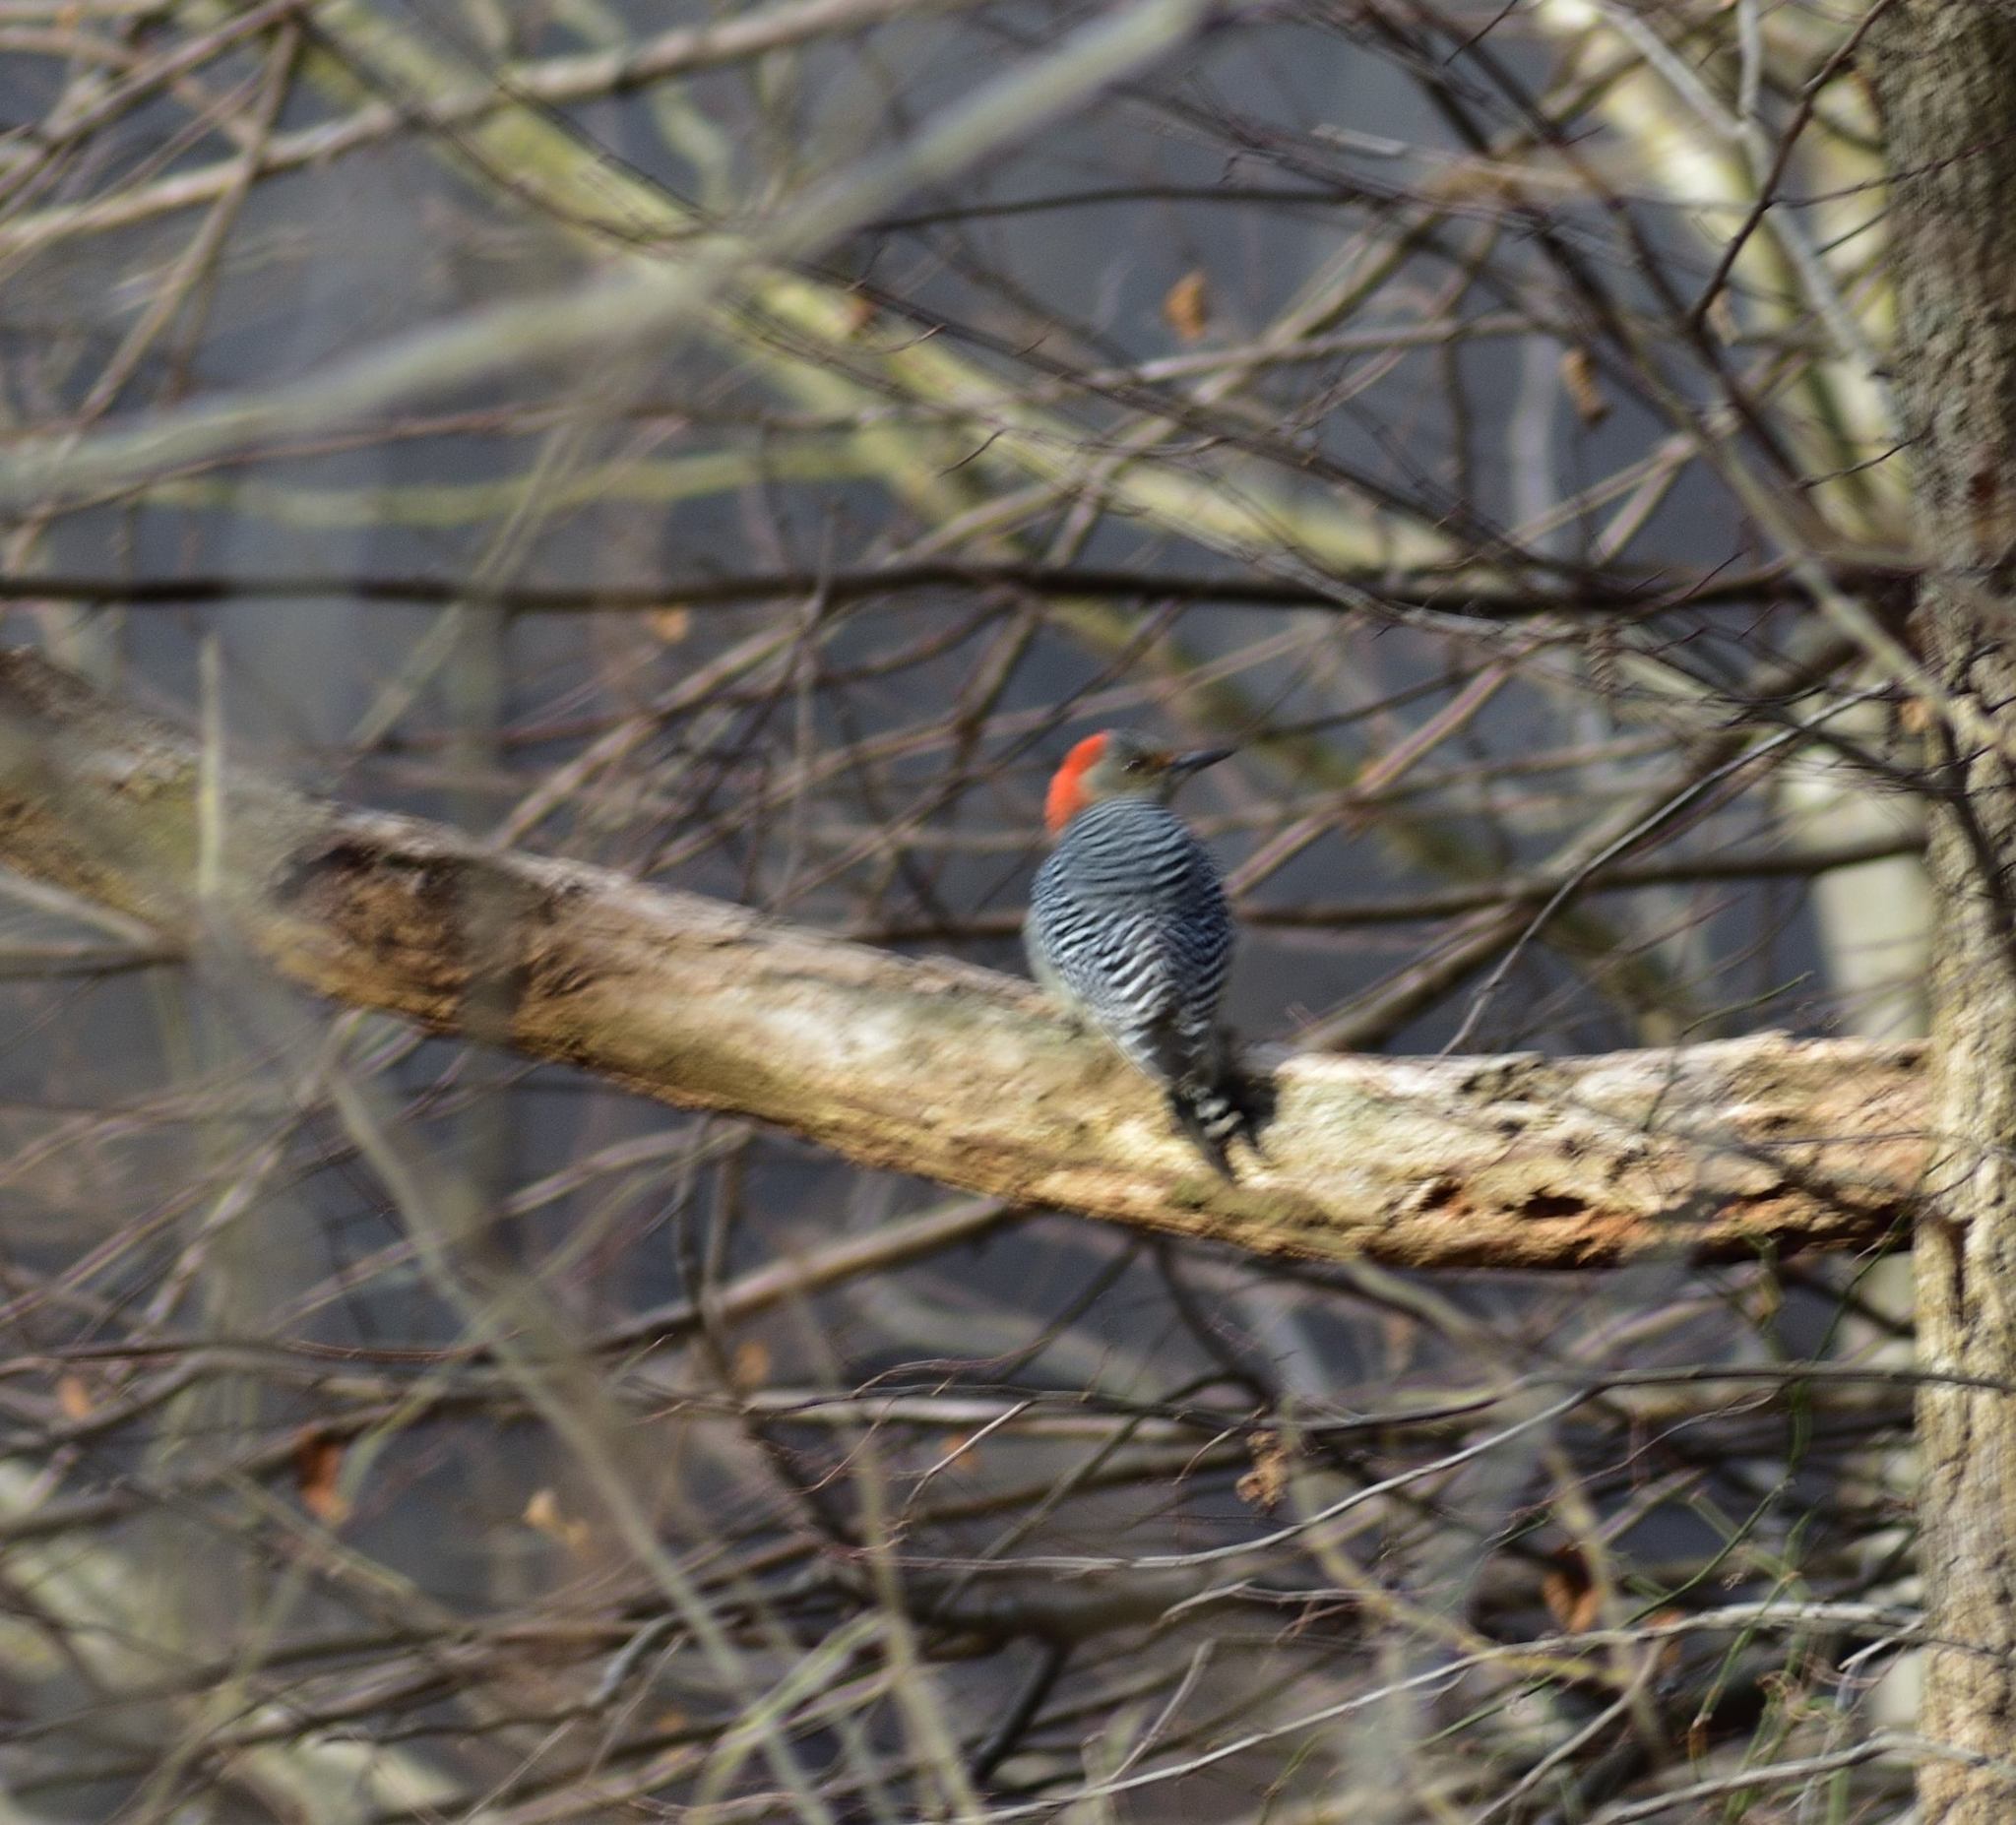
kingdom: Animalia
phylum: Chordata
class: Aves
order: Piciformes
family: Picidae
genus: Melanerpes
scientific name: Melanerpes carolinus
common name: Red-bellied woodpecker
